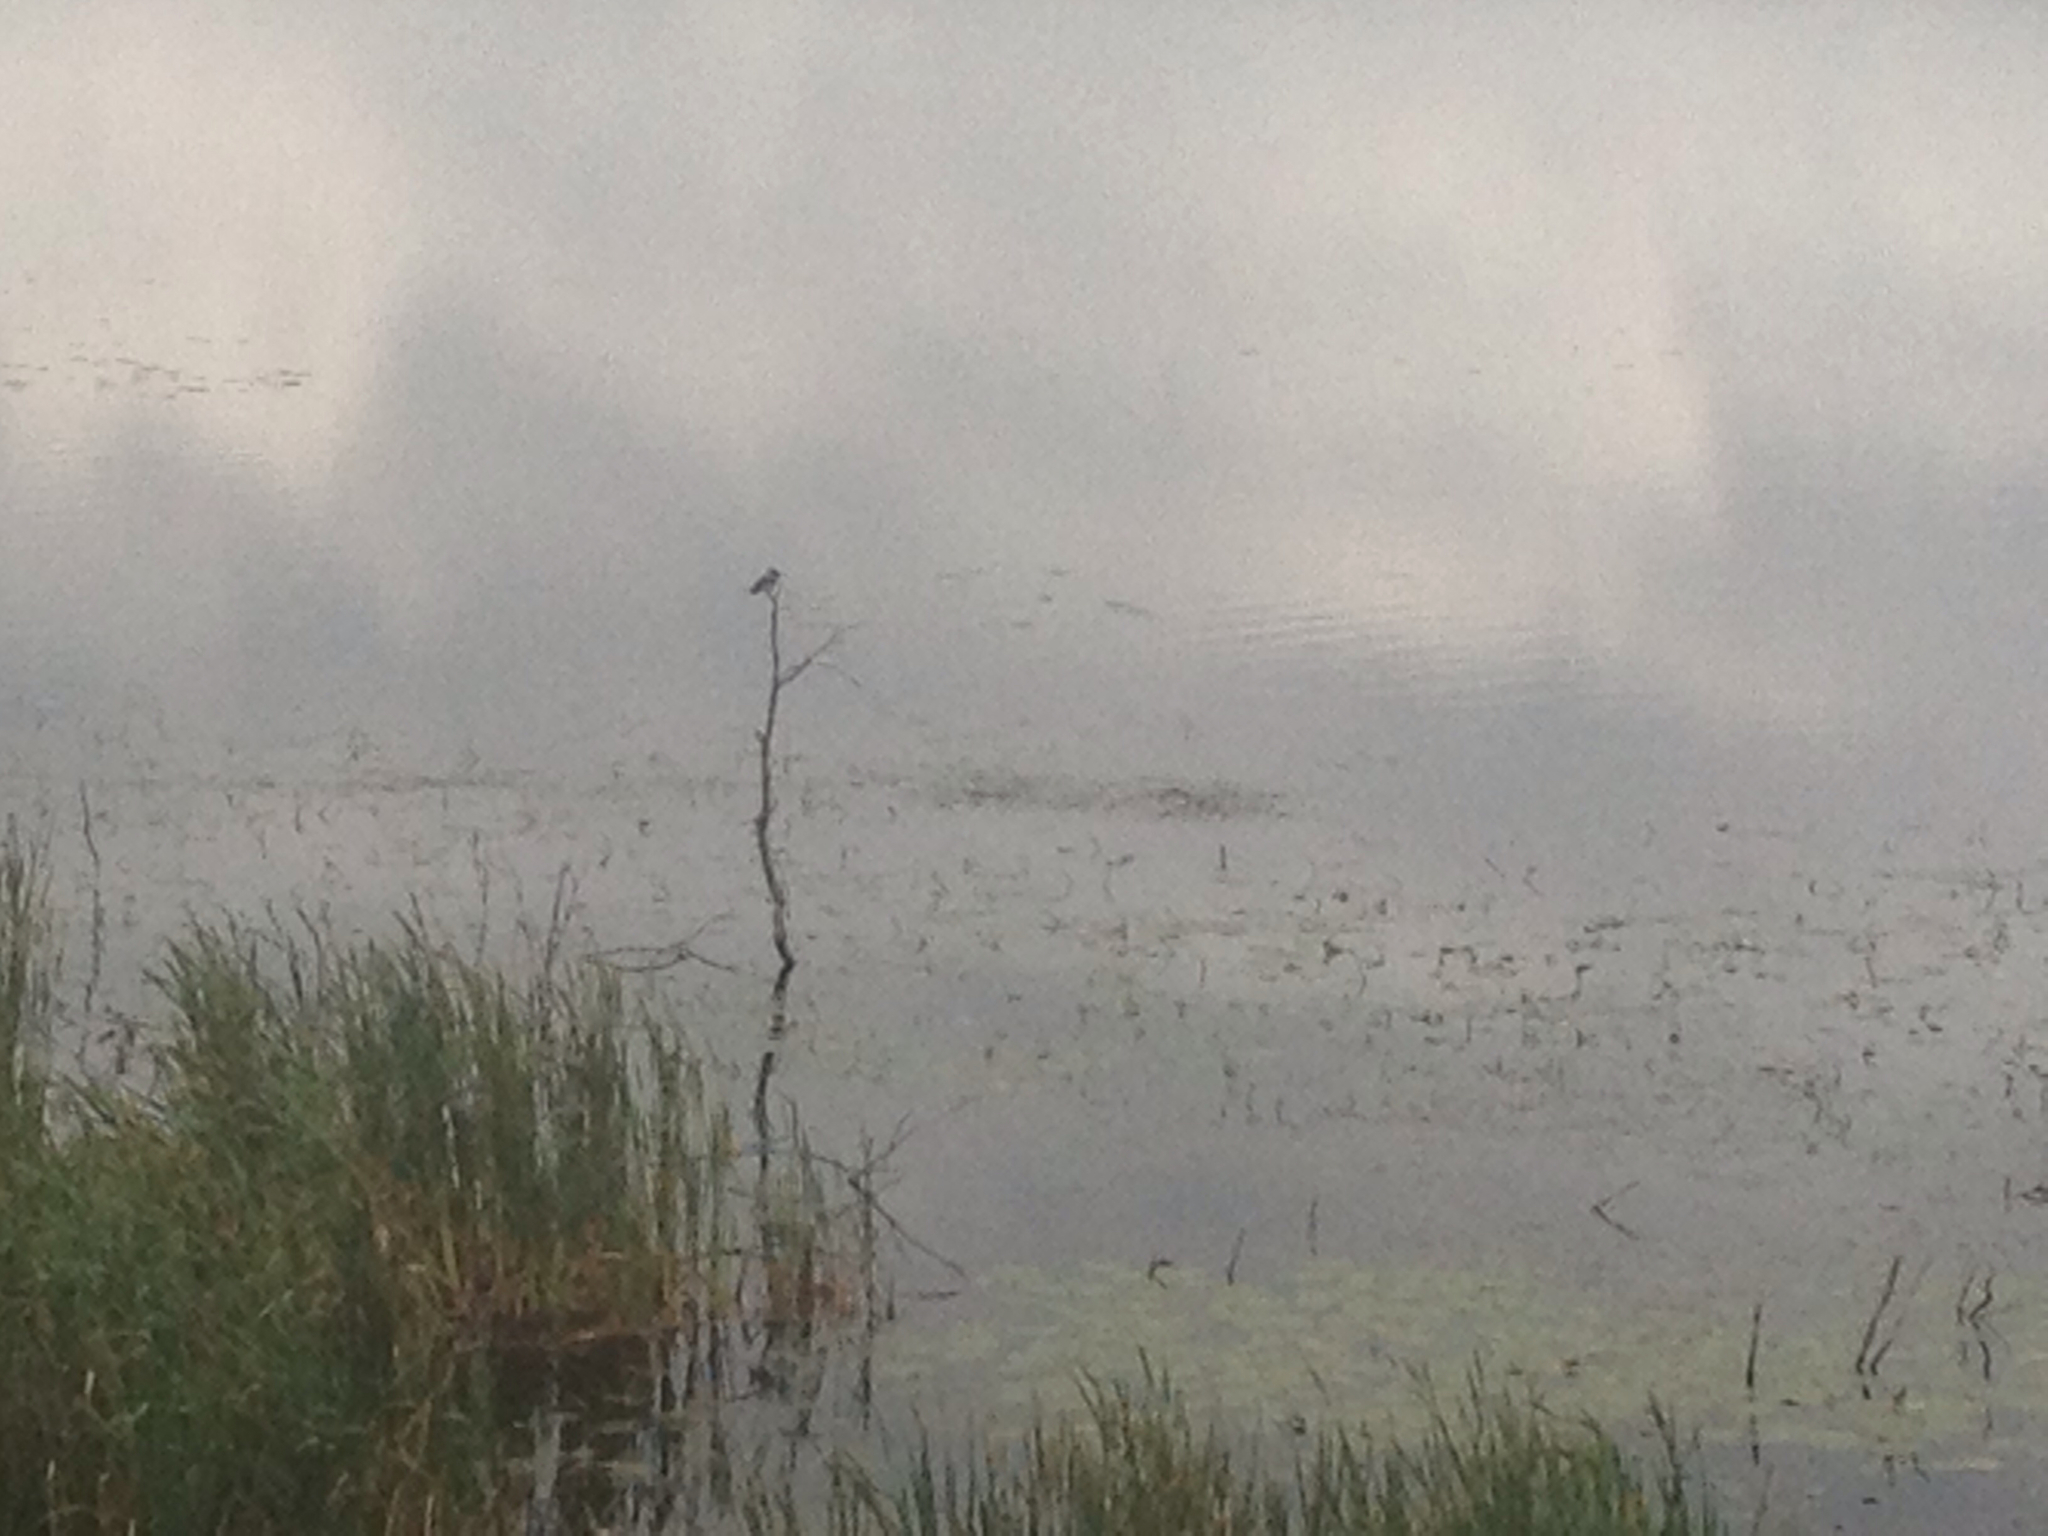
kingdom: Animalia
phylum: Chordata
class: Aves
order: Coraciiformes
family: Alcedinidae
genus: Megaceryle
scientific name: Megaceryle alcyon
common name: Belted kingfisher
